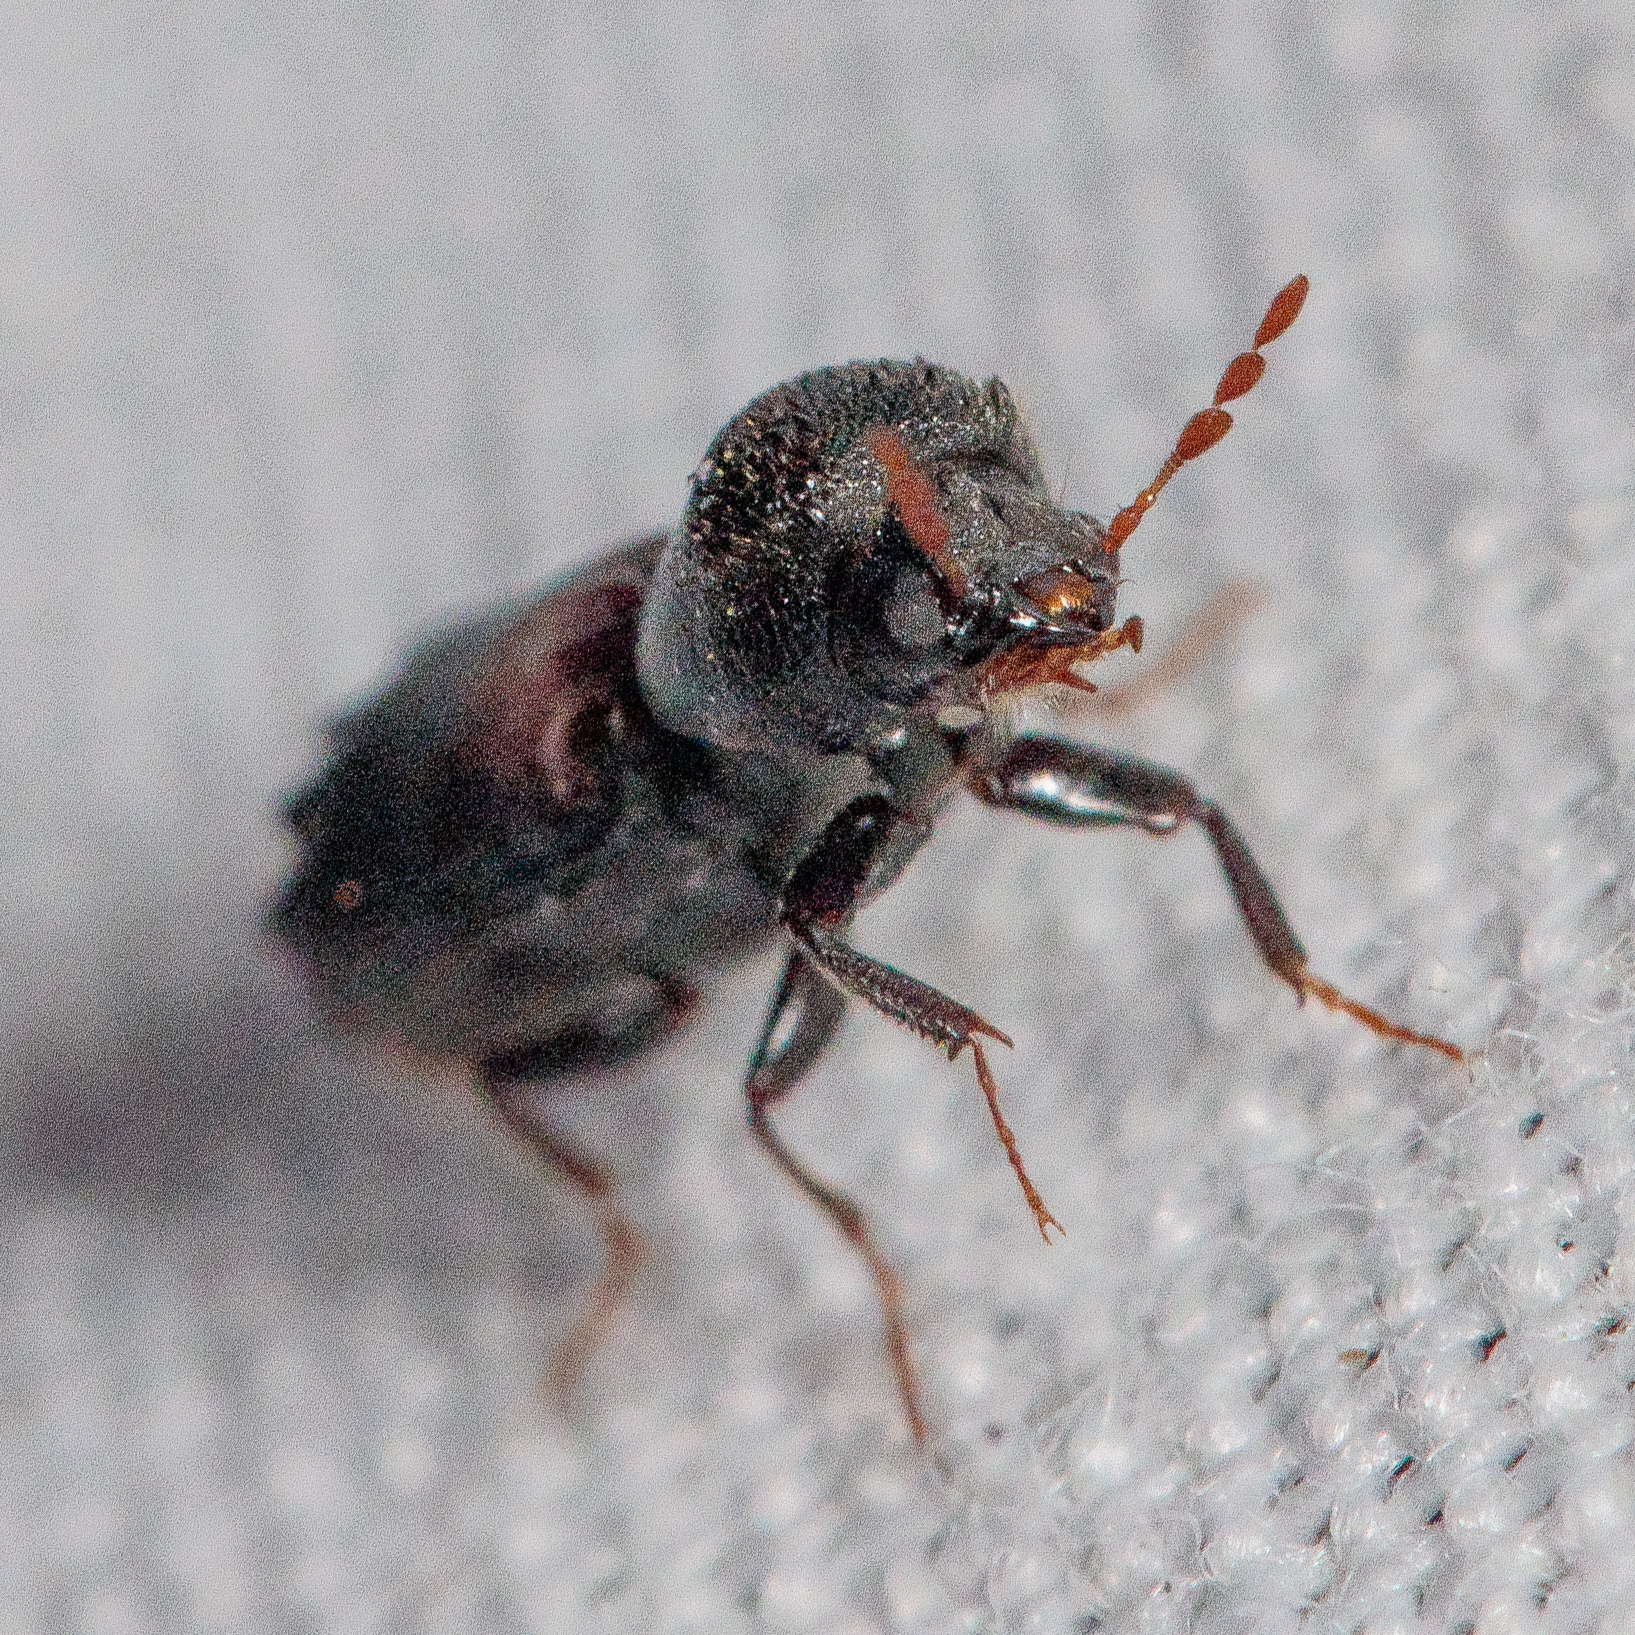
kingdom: Animalia
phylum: Arthropoda
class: Insecta
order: Coleoptera
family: Bostrichidae
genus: Xylobiops
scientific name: Xylobiops basilaris
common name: Red-shouldered bostrichid
